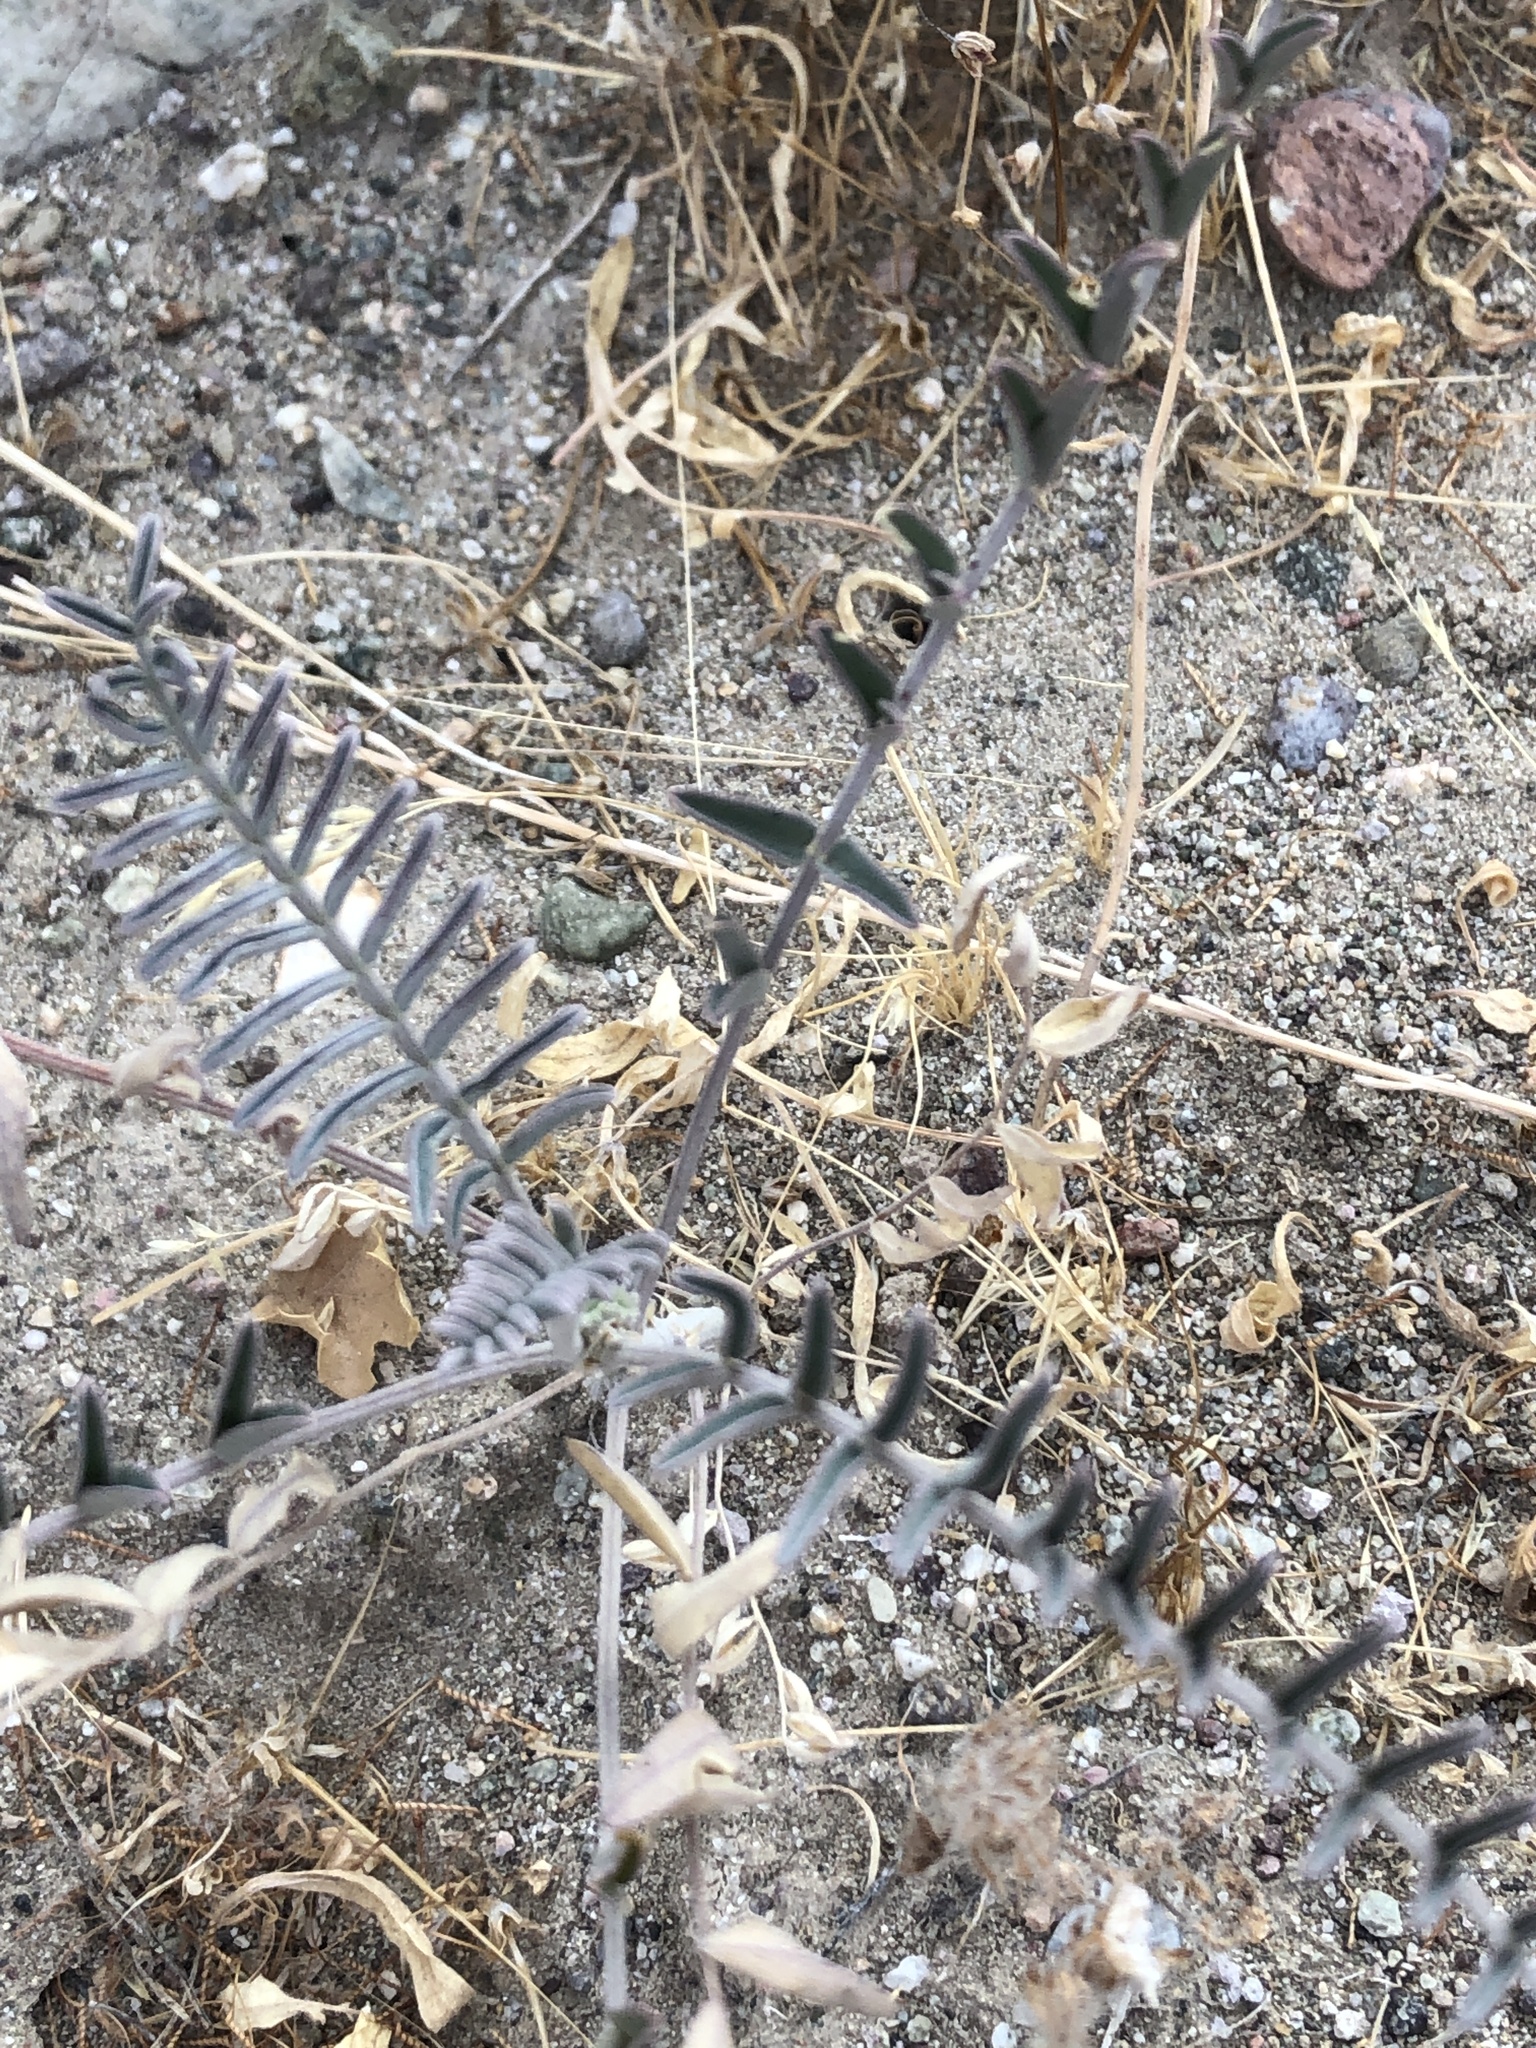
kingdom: Plantae
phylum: Tracheophyta
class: Magnoliopsida
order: Fabales
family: Fabaceae
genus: Astragalus
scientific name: Astragalus trichopodus
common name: Santa barbara milk-vetch
